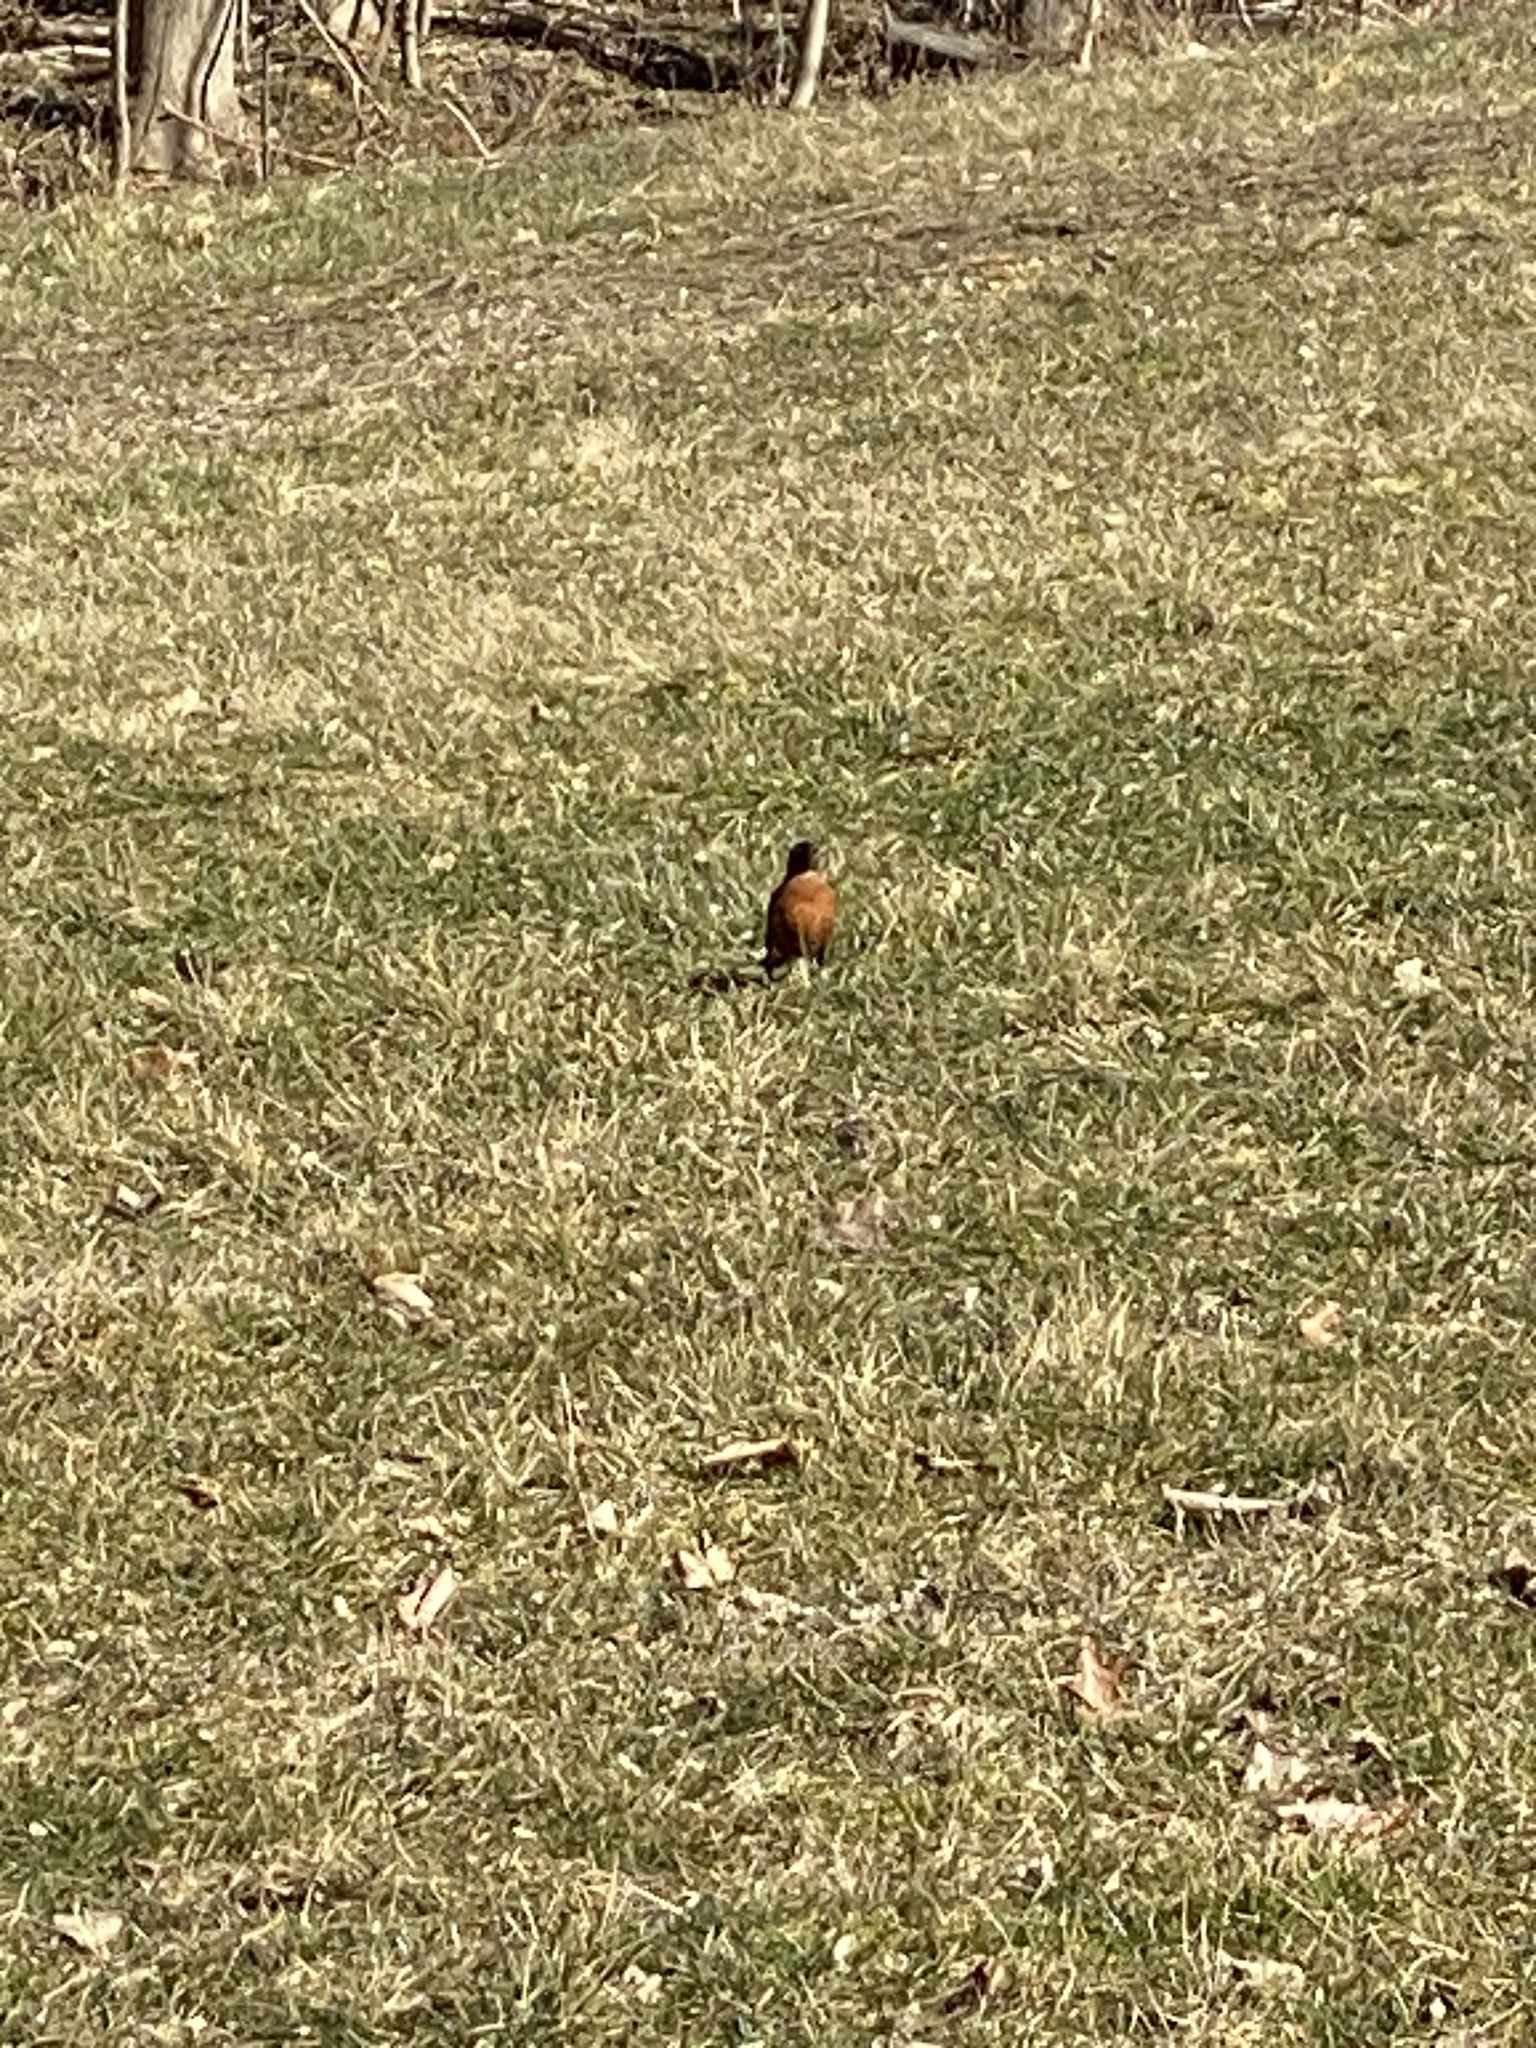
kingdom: Animalia
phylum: Chordata
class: Aves
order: Passeriformes
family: Turdidae
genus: Turdus
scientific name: Turdus migratorius
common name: American robin
